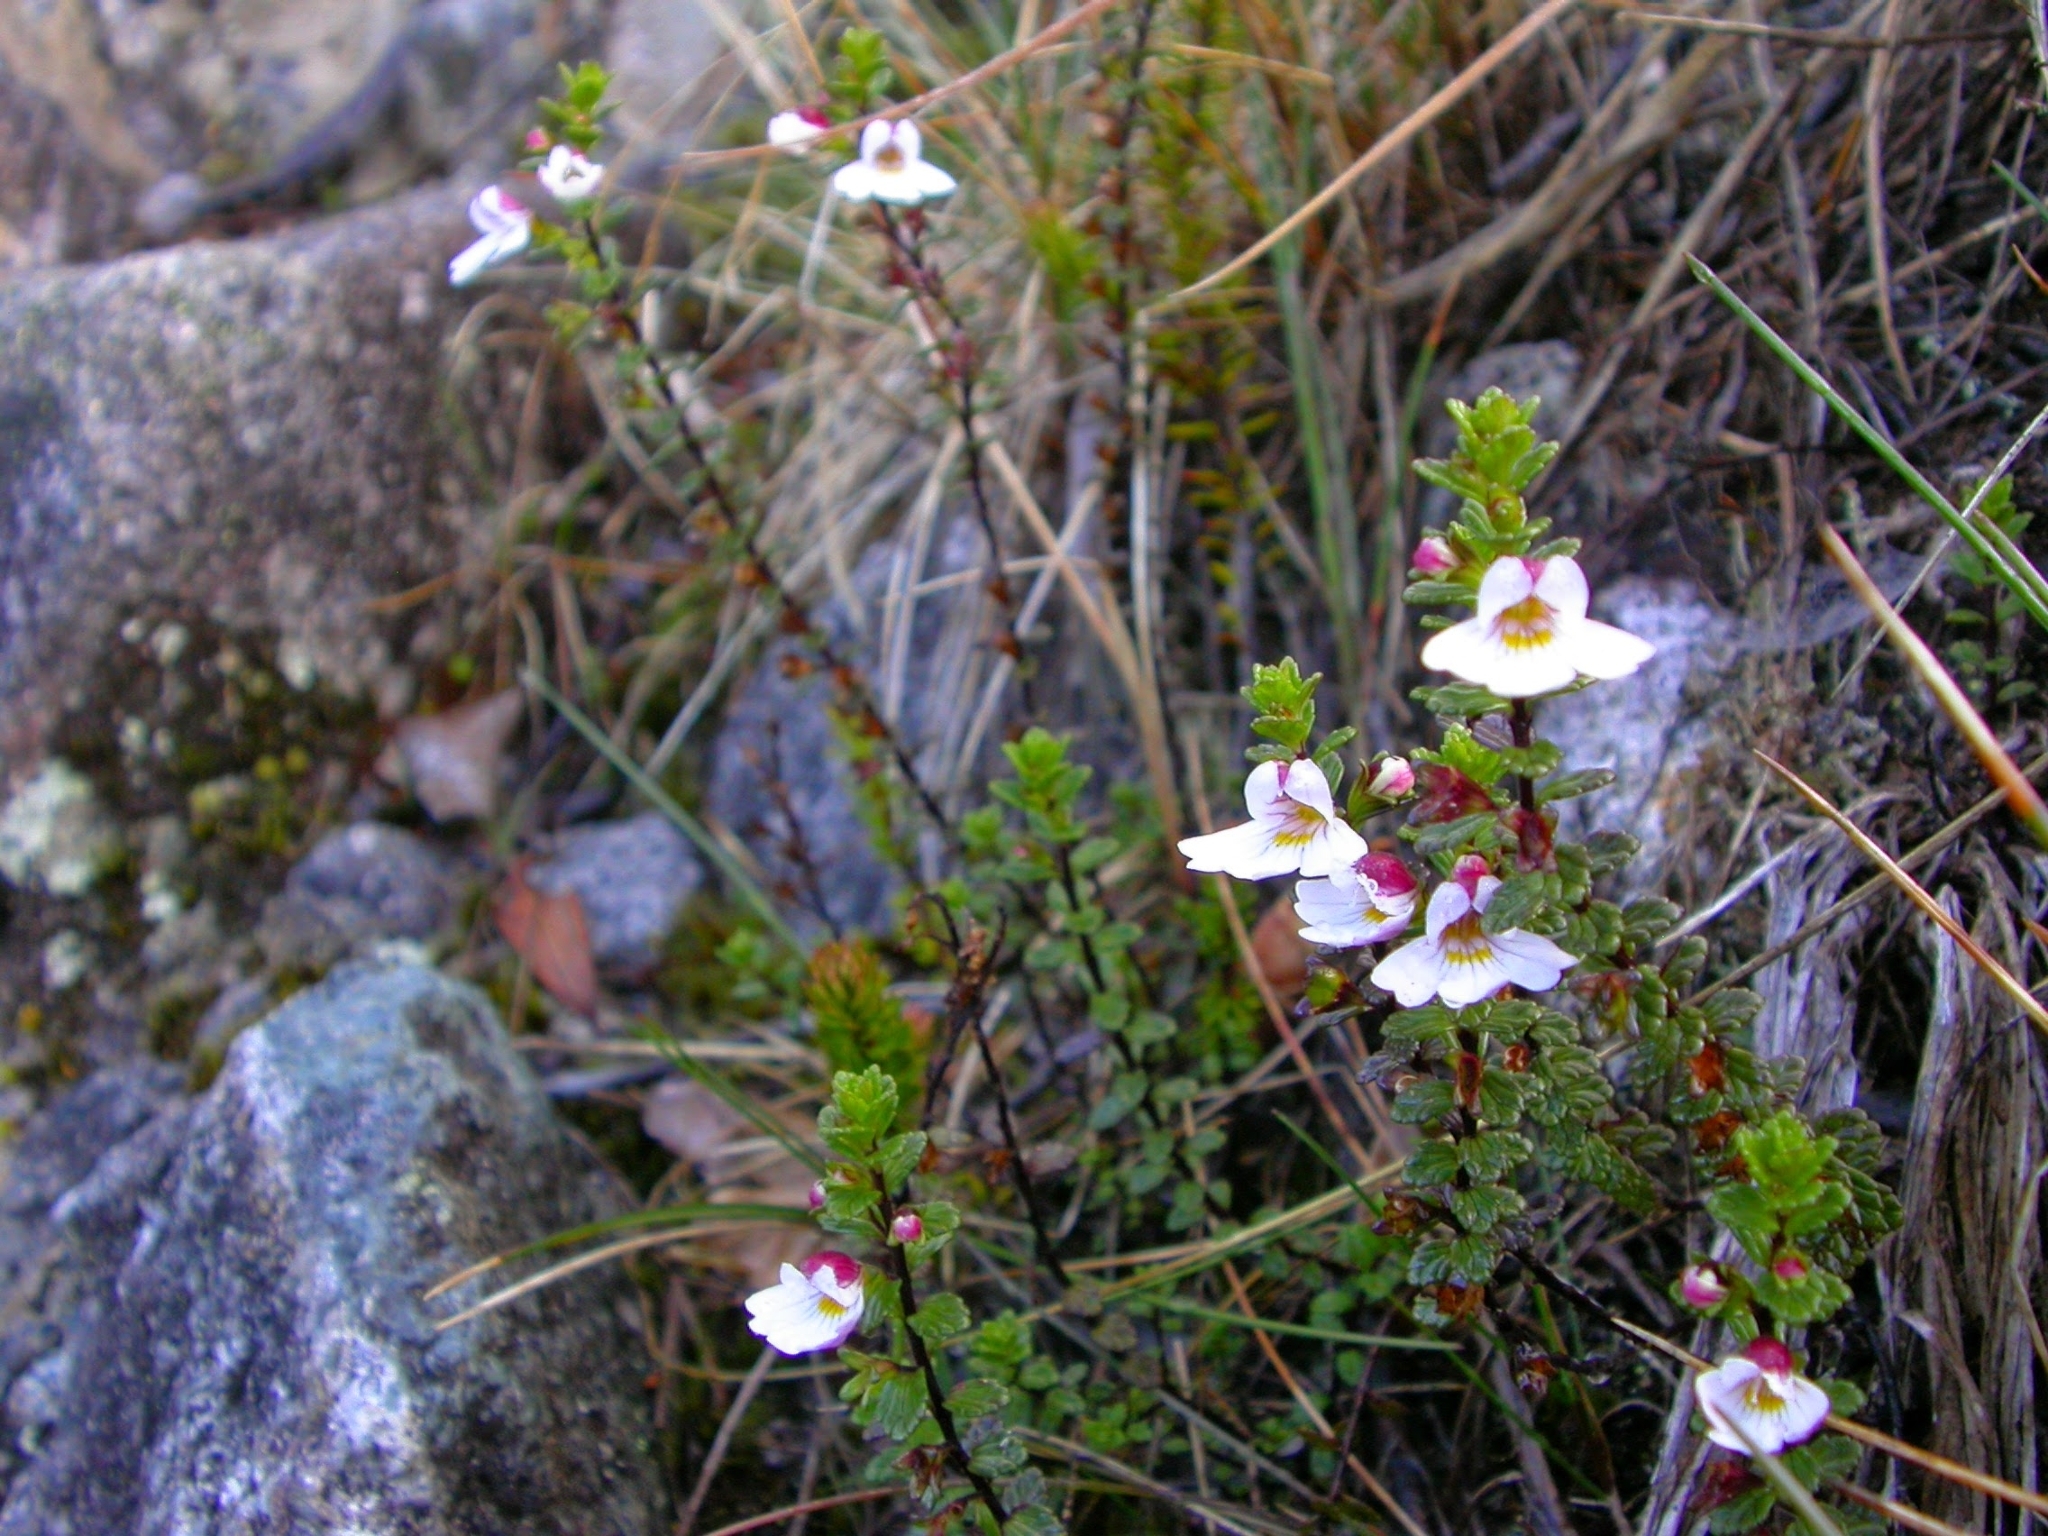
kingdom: Plantae
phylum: Tracheophyta
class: Magnoliopsida
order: Lamiales
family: Orobanchaceae
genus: Euphrasia
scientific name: Euphrasia borneensis
